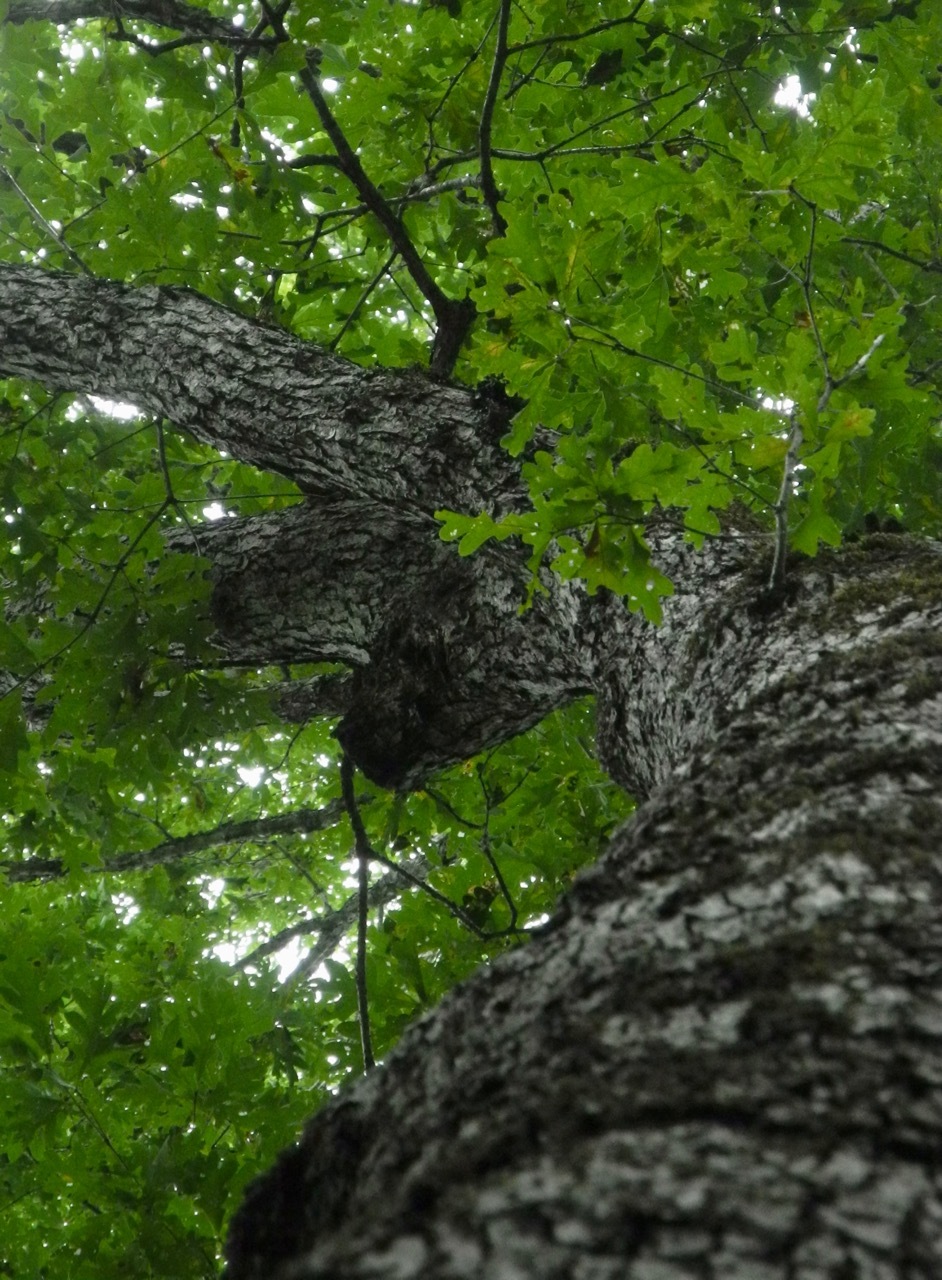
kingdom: Plantae
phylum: Tracheophyta
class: Magnoliopsida
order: Fagales
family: Fagaceae
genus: Quercus
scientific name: Quercus alba
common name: White oak
